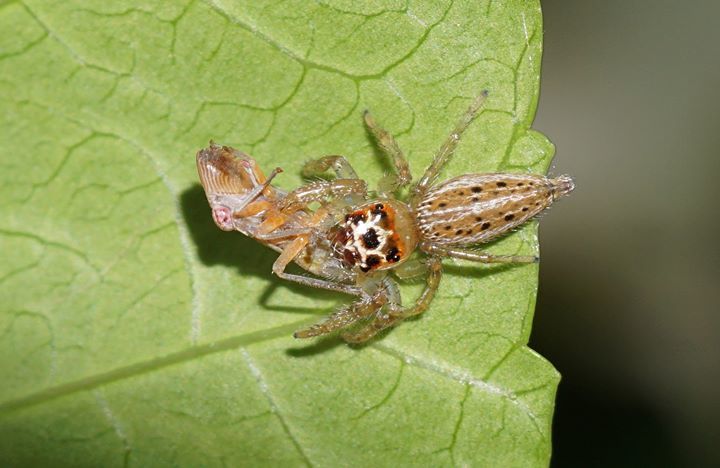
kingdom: Animalia
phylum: Arthropoda
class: Arachnida
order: Araneae
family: Salticidae
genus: Colonus
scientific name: Colonus sylvanus
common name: Jumping spiders
